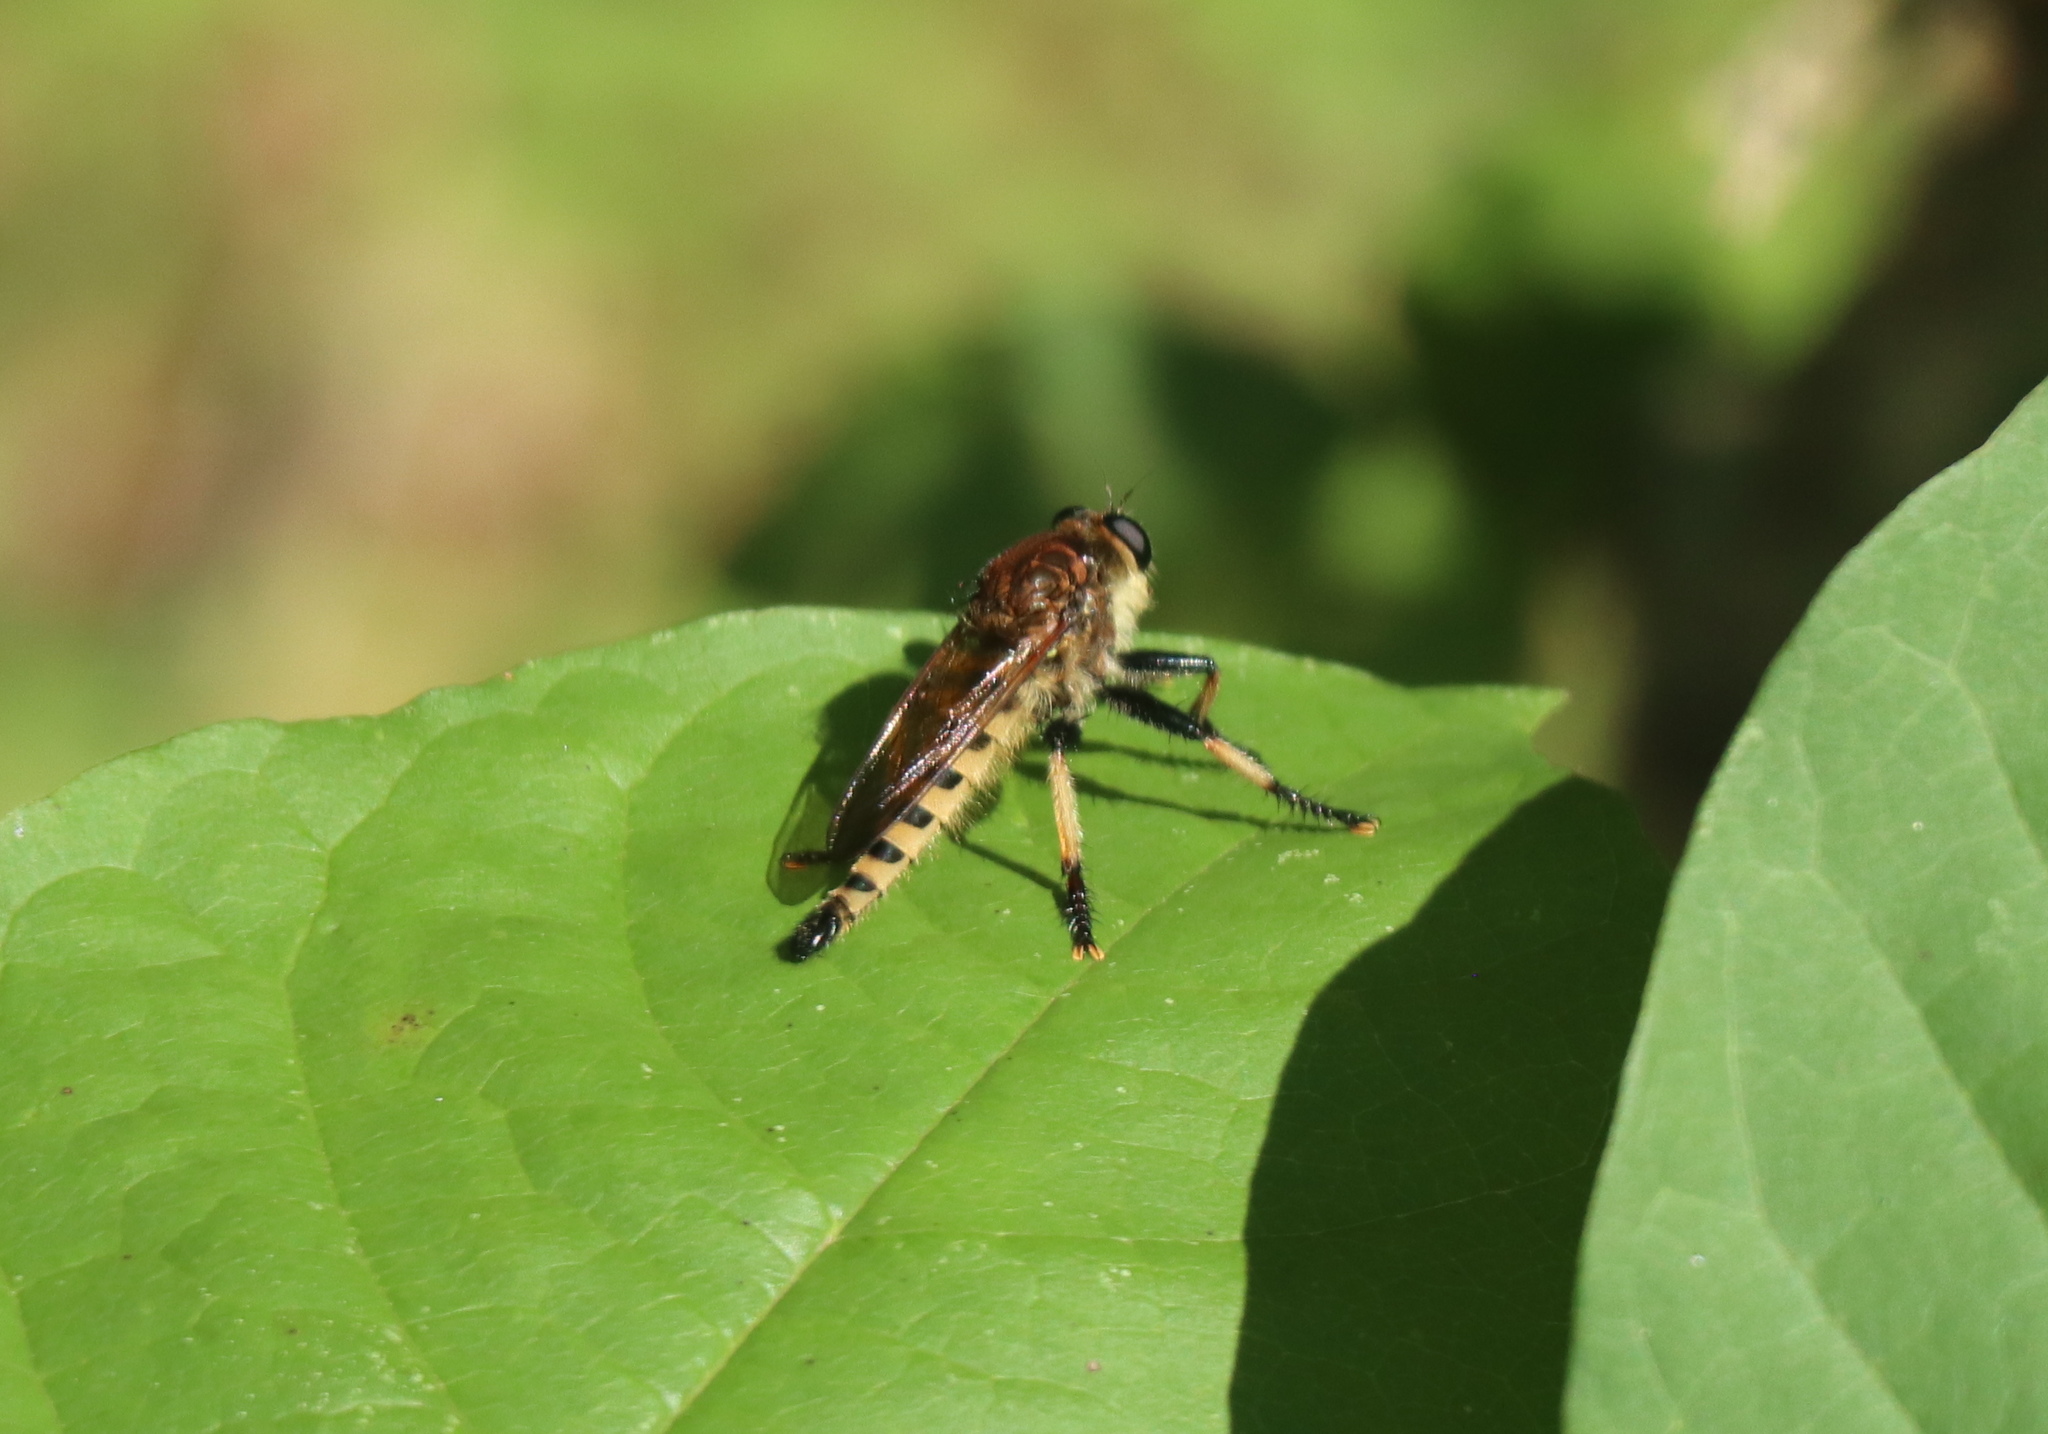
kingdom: Animalia
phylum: Arthropoda
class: Insecta
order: Diptera
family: Asilidae
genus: Promachus
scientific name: Promachus rufipes
